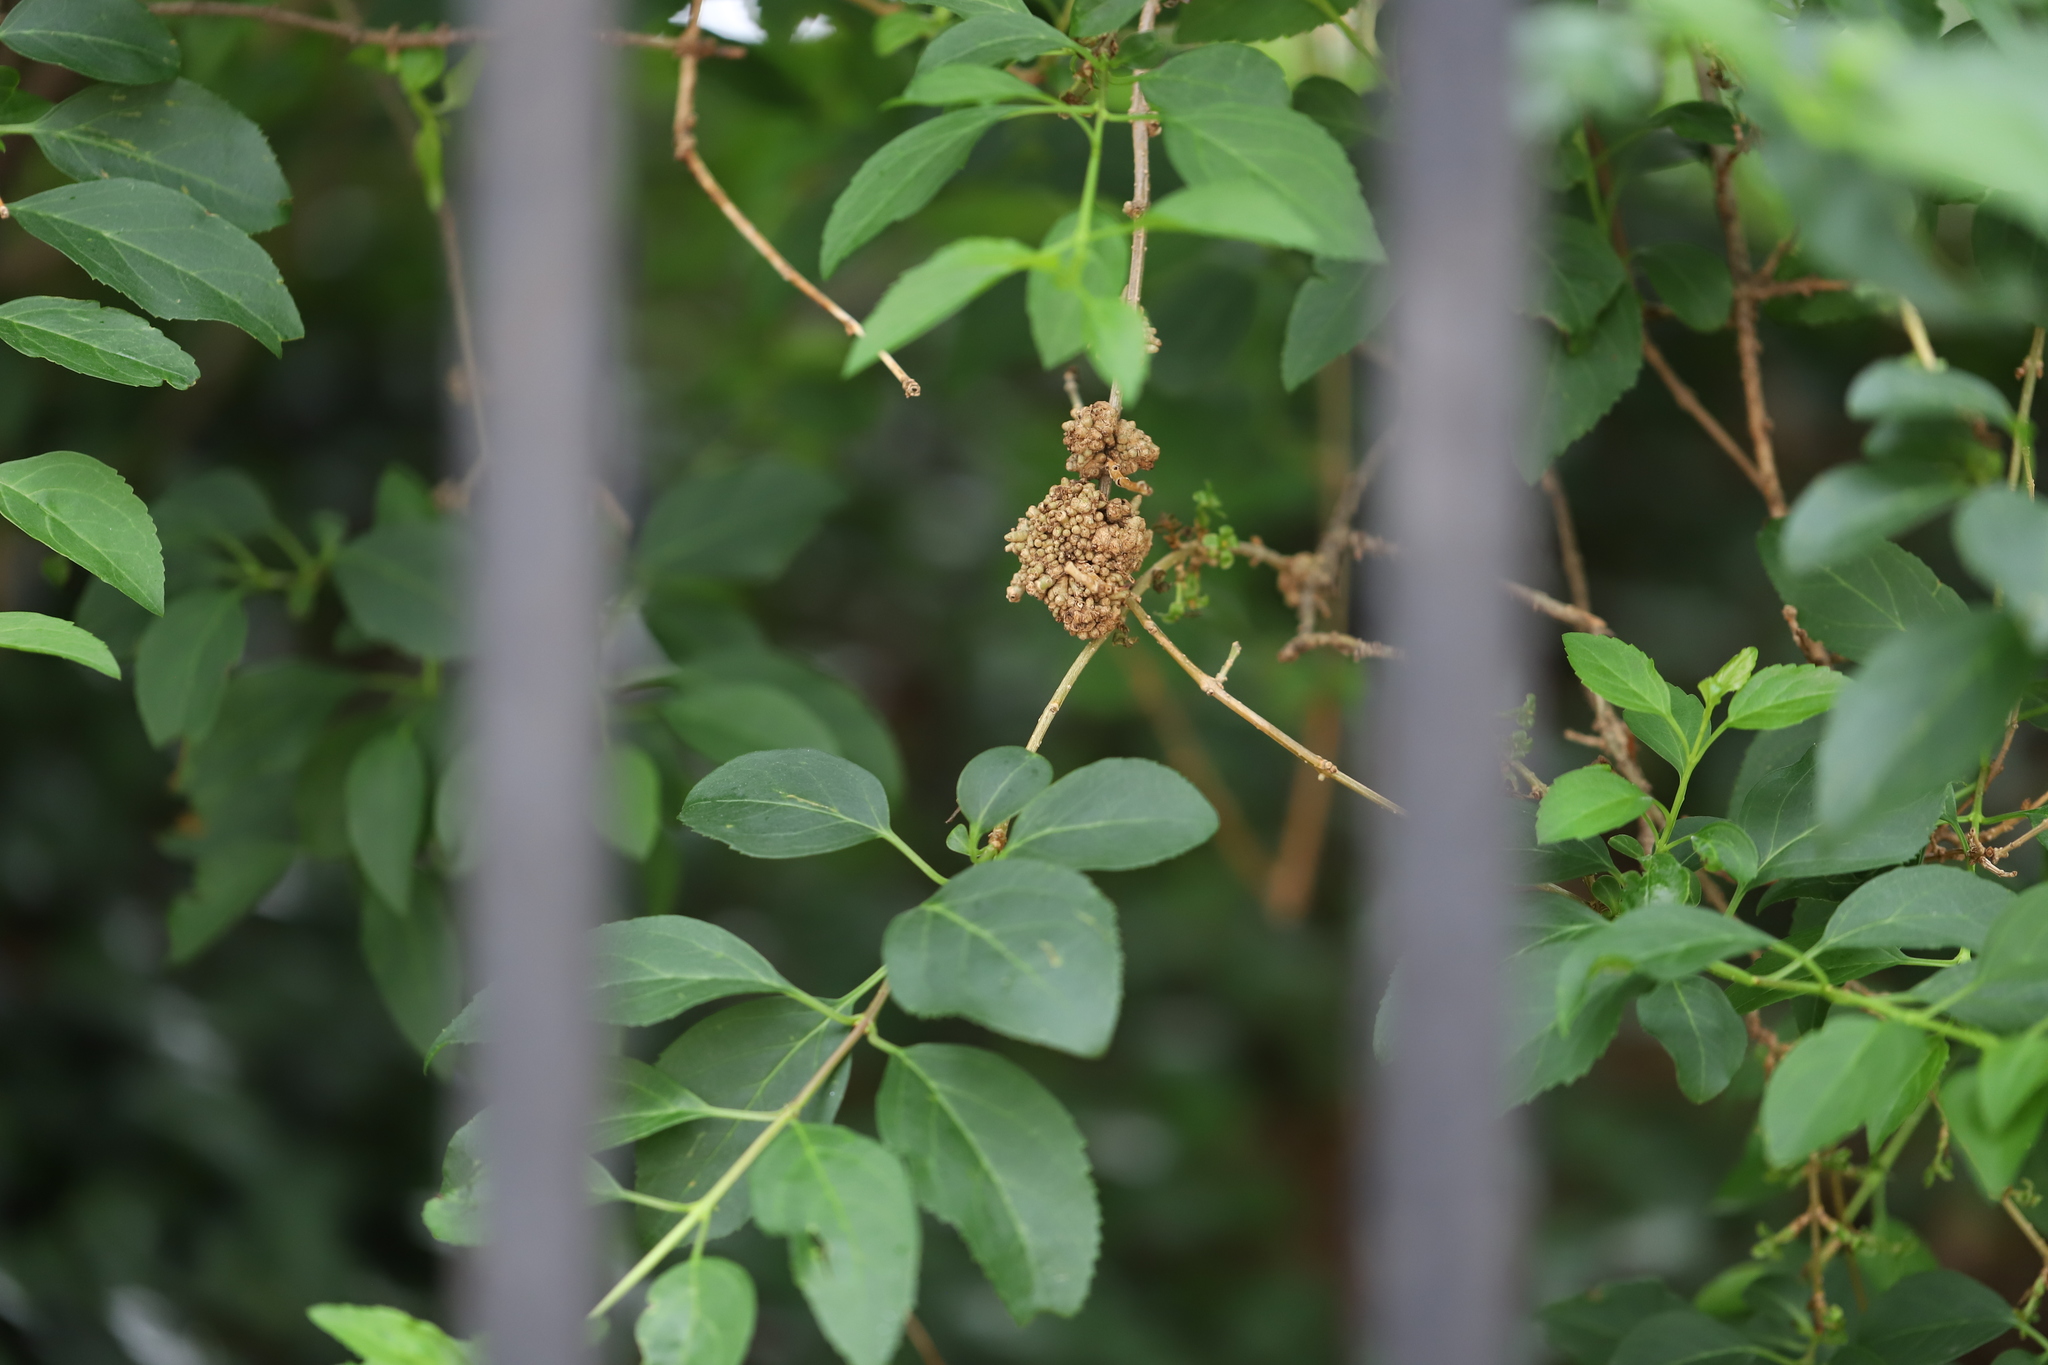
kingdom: Bacteria
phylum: Proteobacteria
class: Gammaproteobacteria
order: Pseudomonadales
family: Pseudomonadaceae
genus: Pseudomonas
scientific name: Pseudomonas
